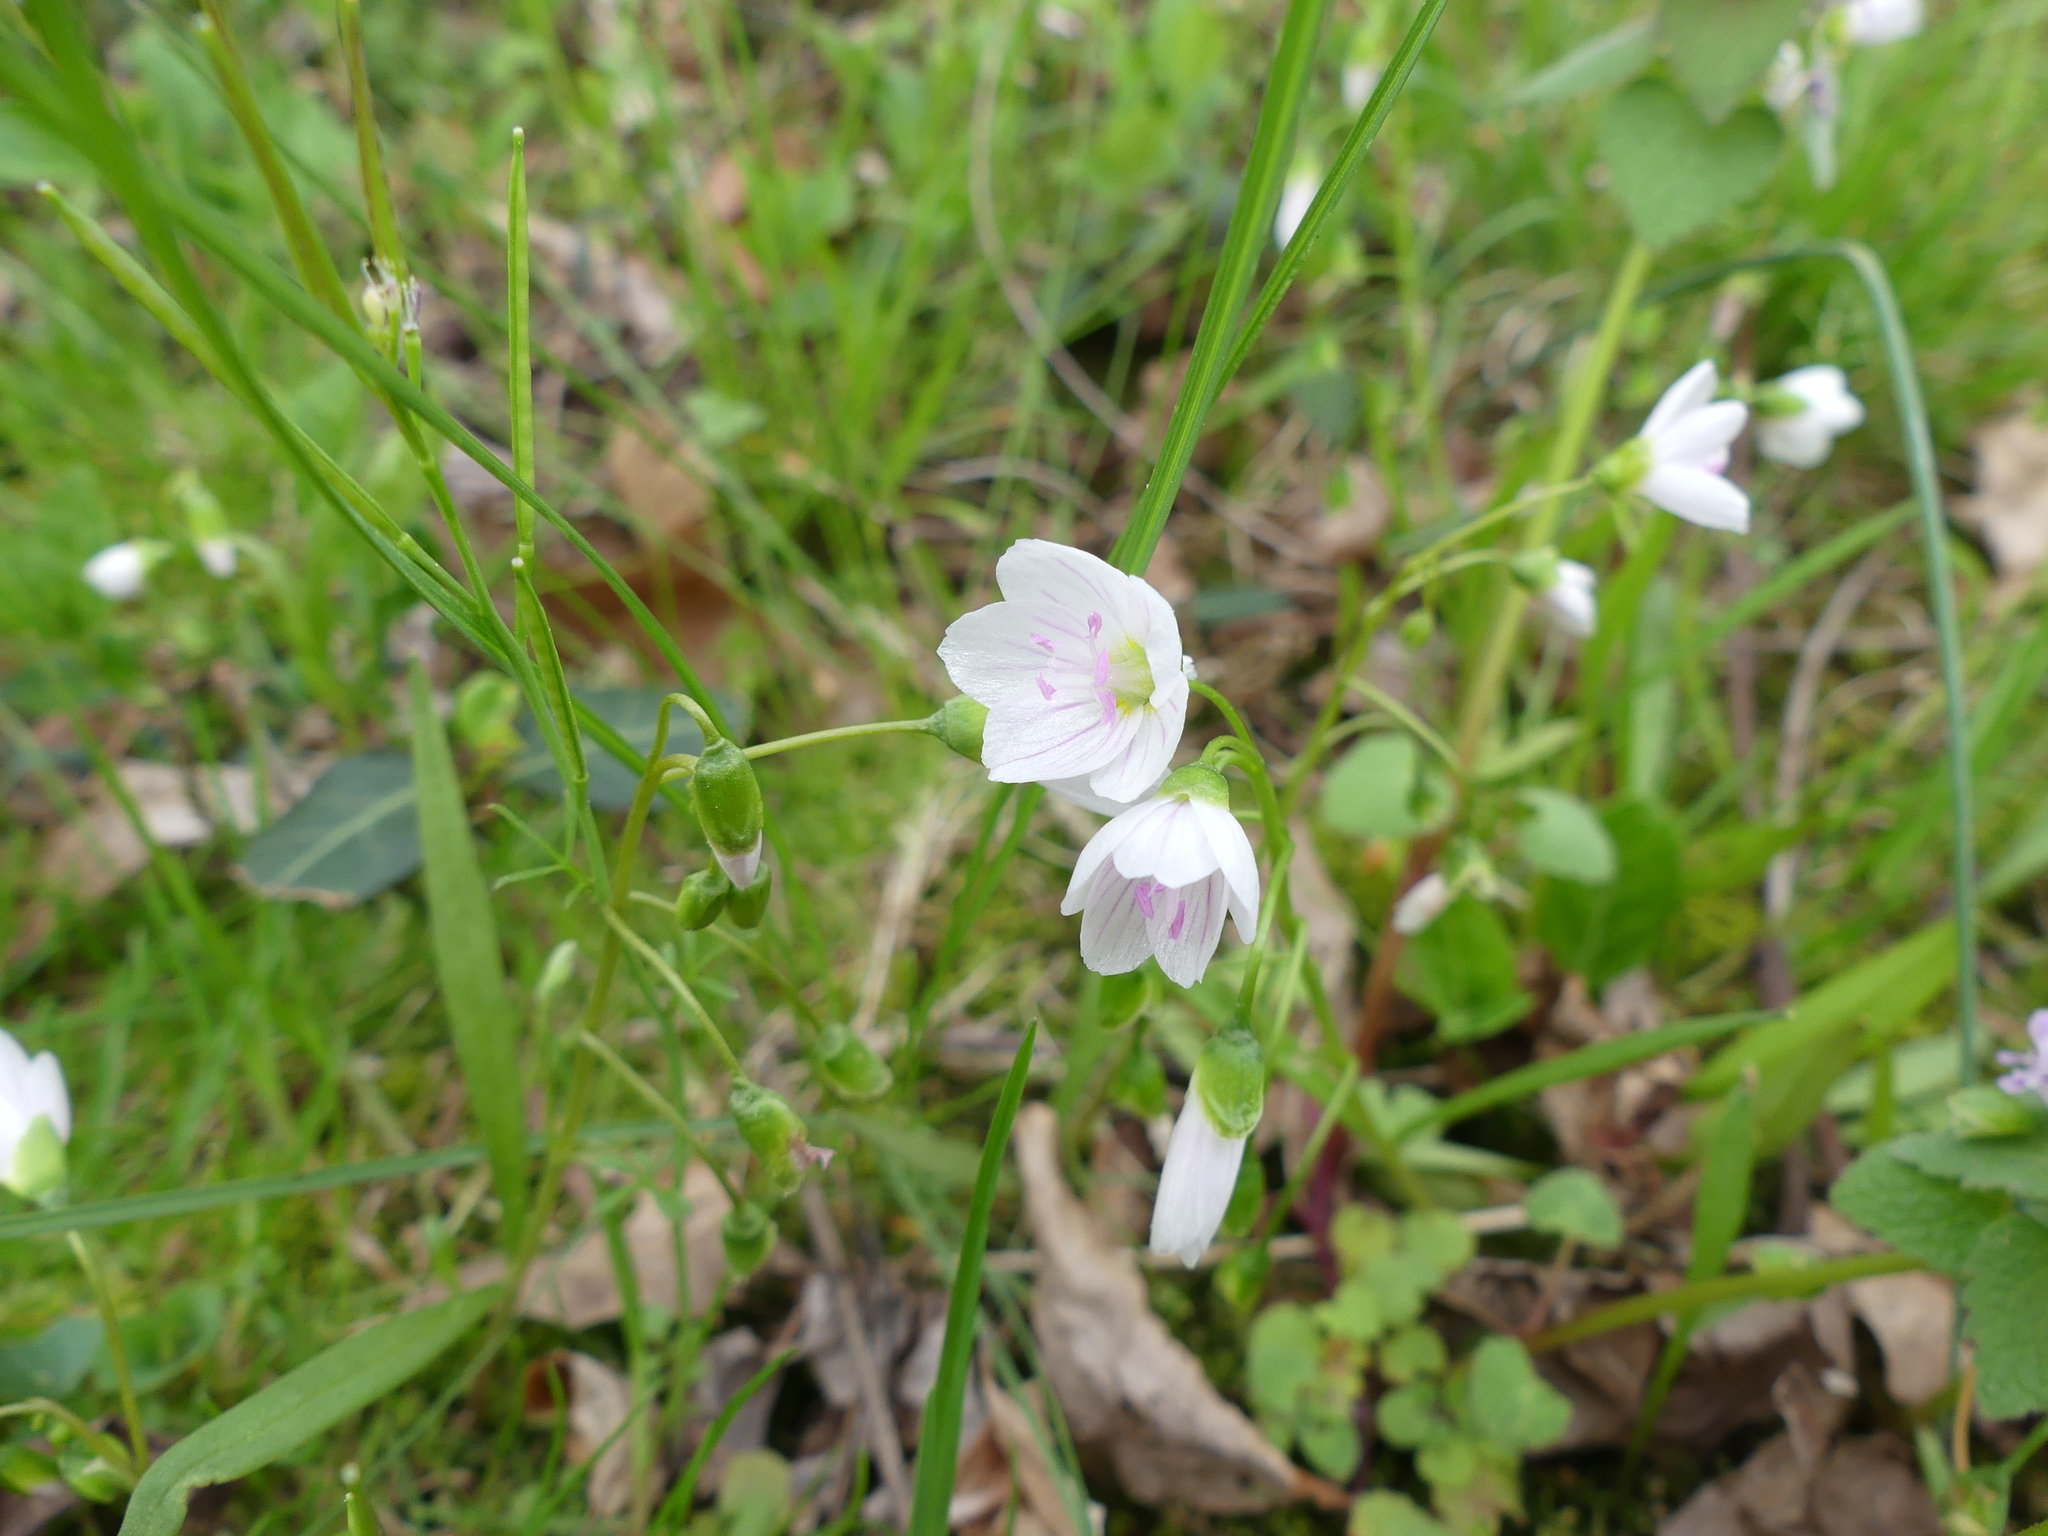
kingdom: Plantae
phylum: Tracheophyta
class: Magnoliopsida
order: Caryophyllales
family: Montiaceae
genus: Claytonia
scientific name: Claytonia virginica
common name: Virginia springbeauty
